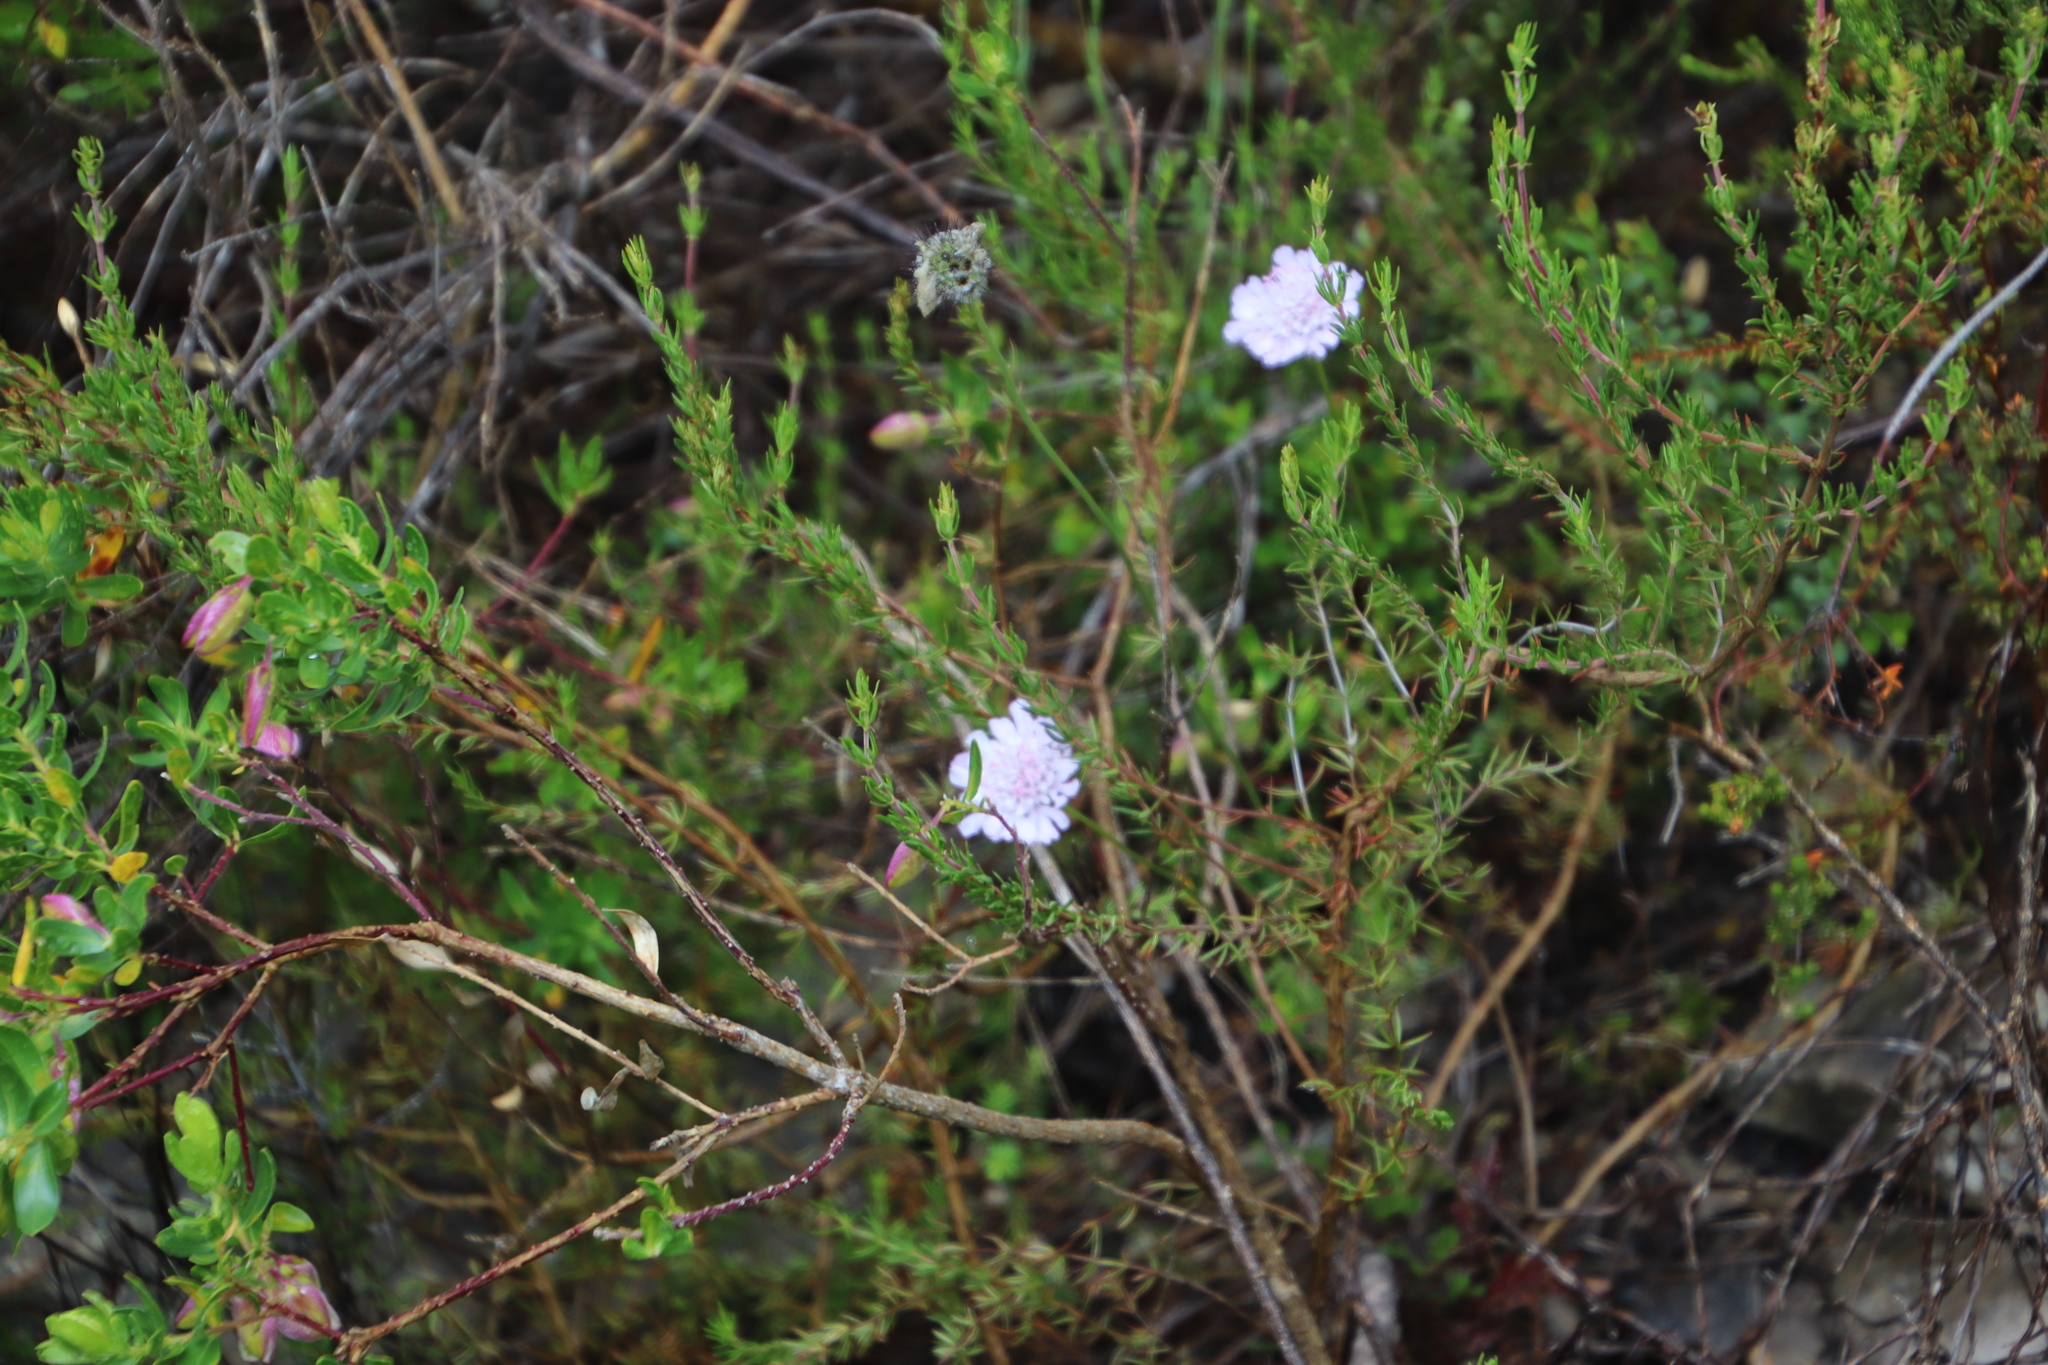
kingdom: Plantae
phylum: Tracheophyta
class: Magnoliopsida
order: Dipsacales
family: Caprifoliaceae
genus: Scabiosa
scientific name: Scabiosa columbaria
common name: Small scabious
